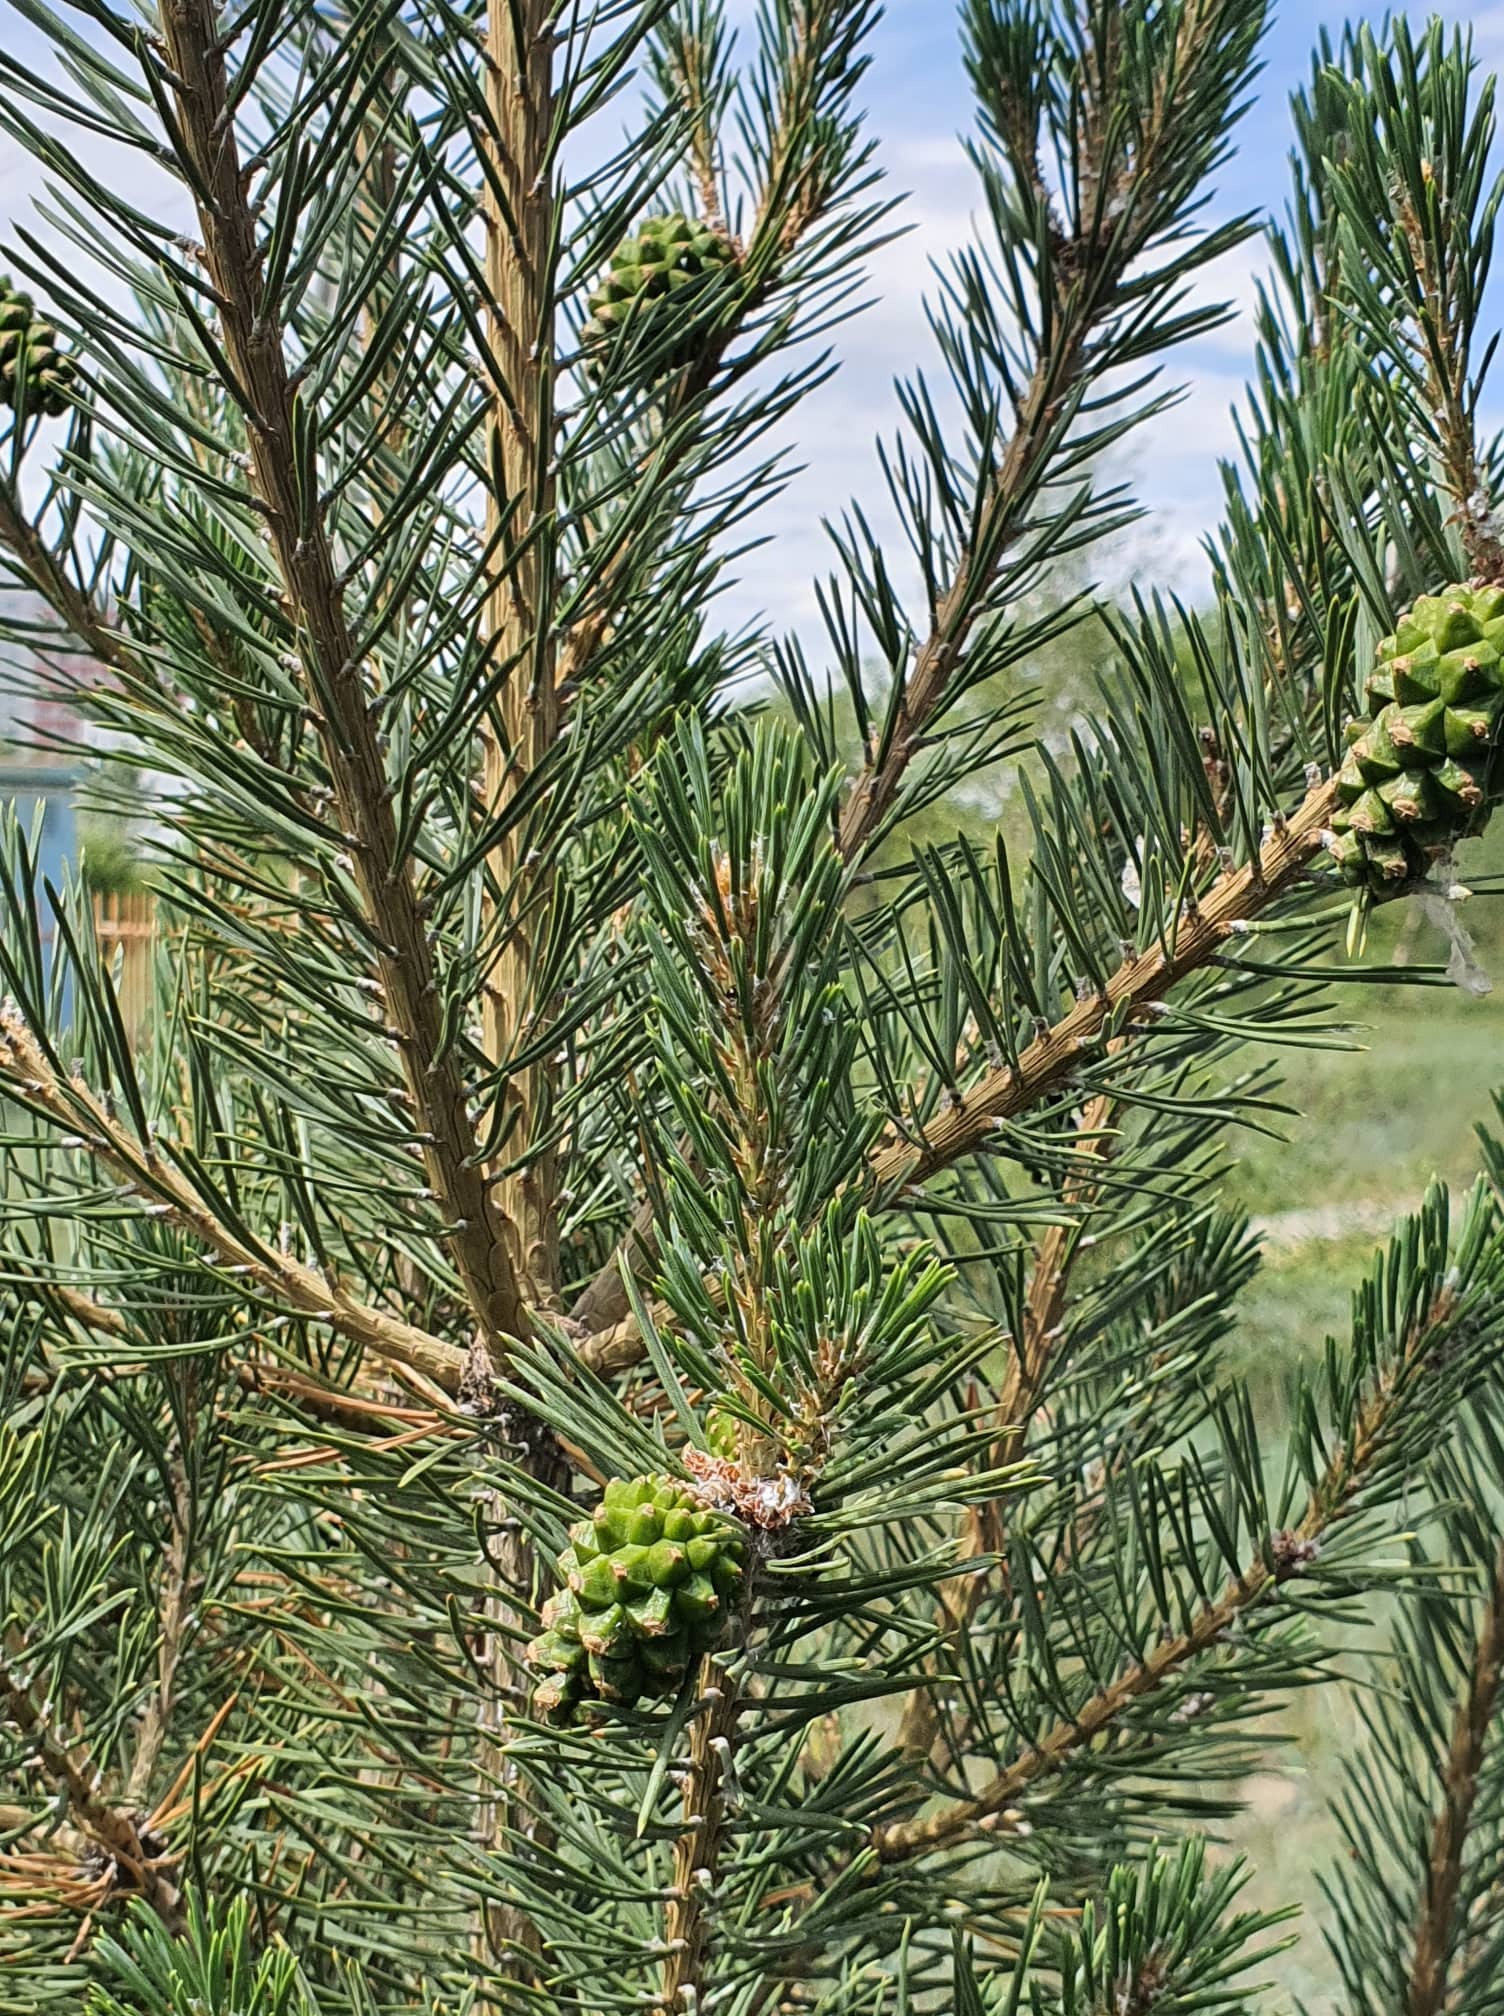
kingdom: Plantae
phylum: Tracheophyta
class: Pinopsida
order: Pinales
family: Pinaceae
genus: Pinus
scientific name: Pinus sylvestris
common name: Scots pine
